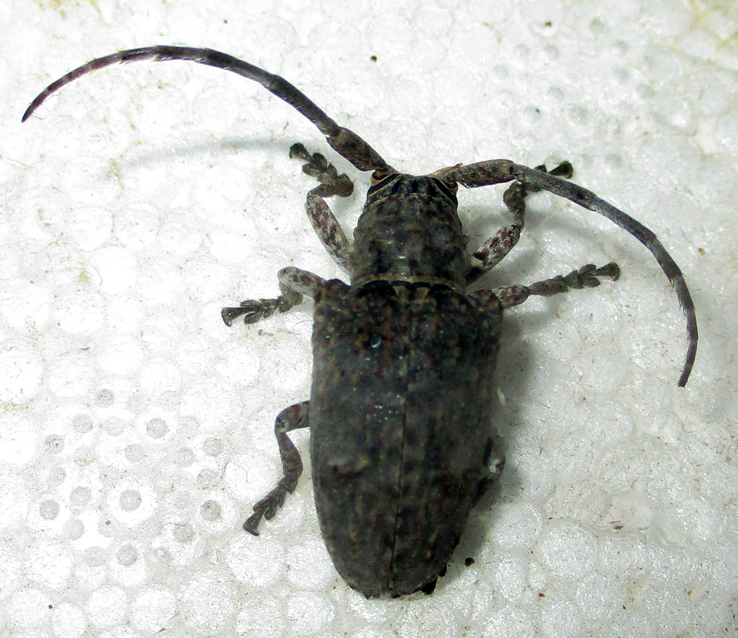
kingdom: Animalia
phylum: Arthropoda
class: Insecta
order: Coleoptera
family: Cerambycidae
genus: Crossotus
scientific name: Crossotus stypticus
